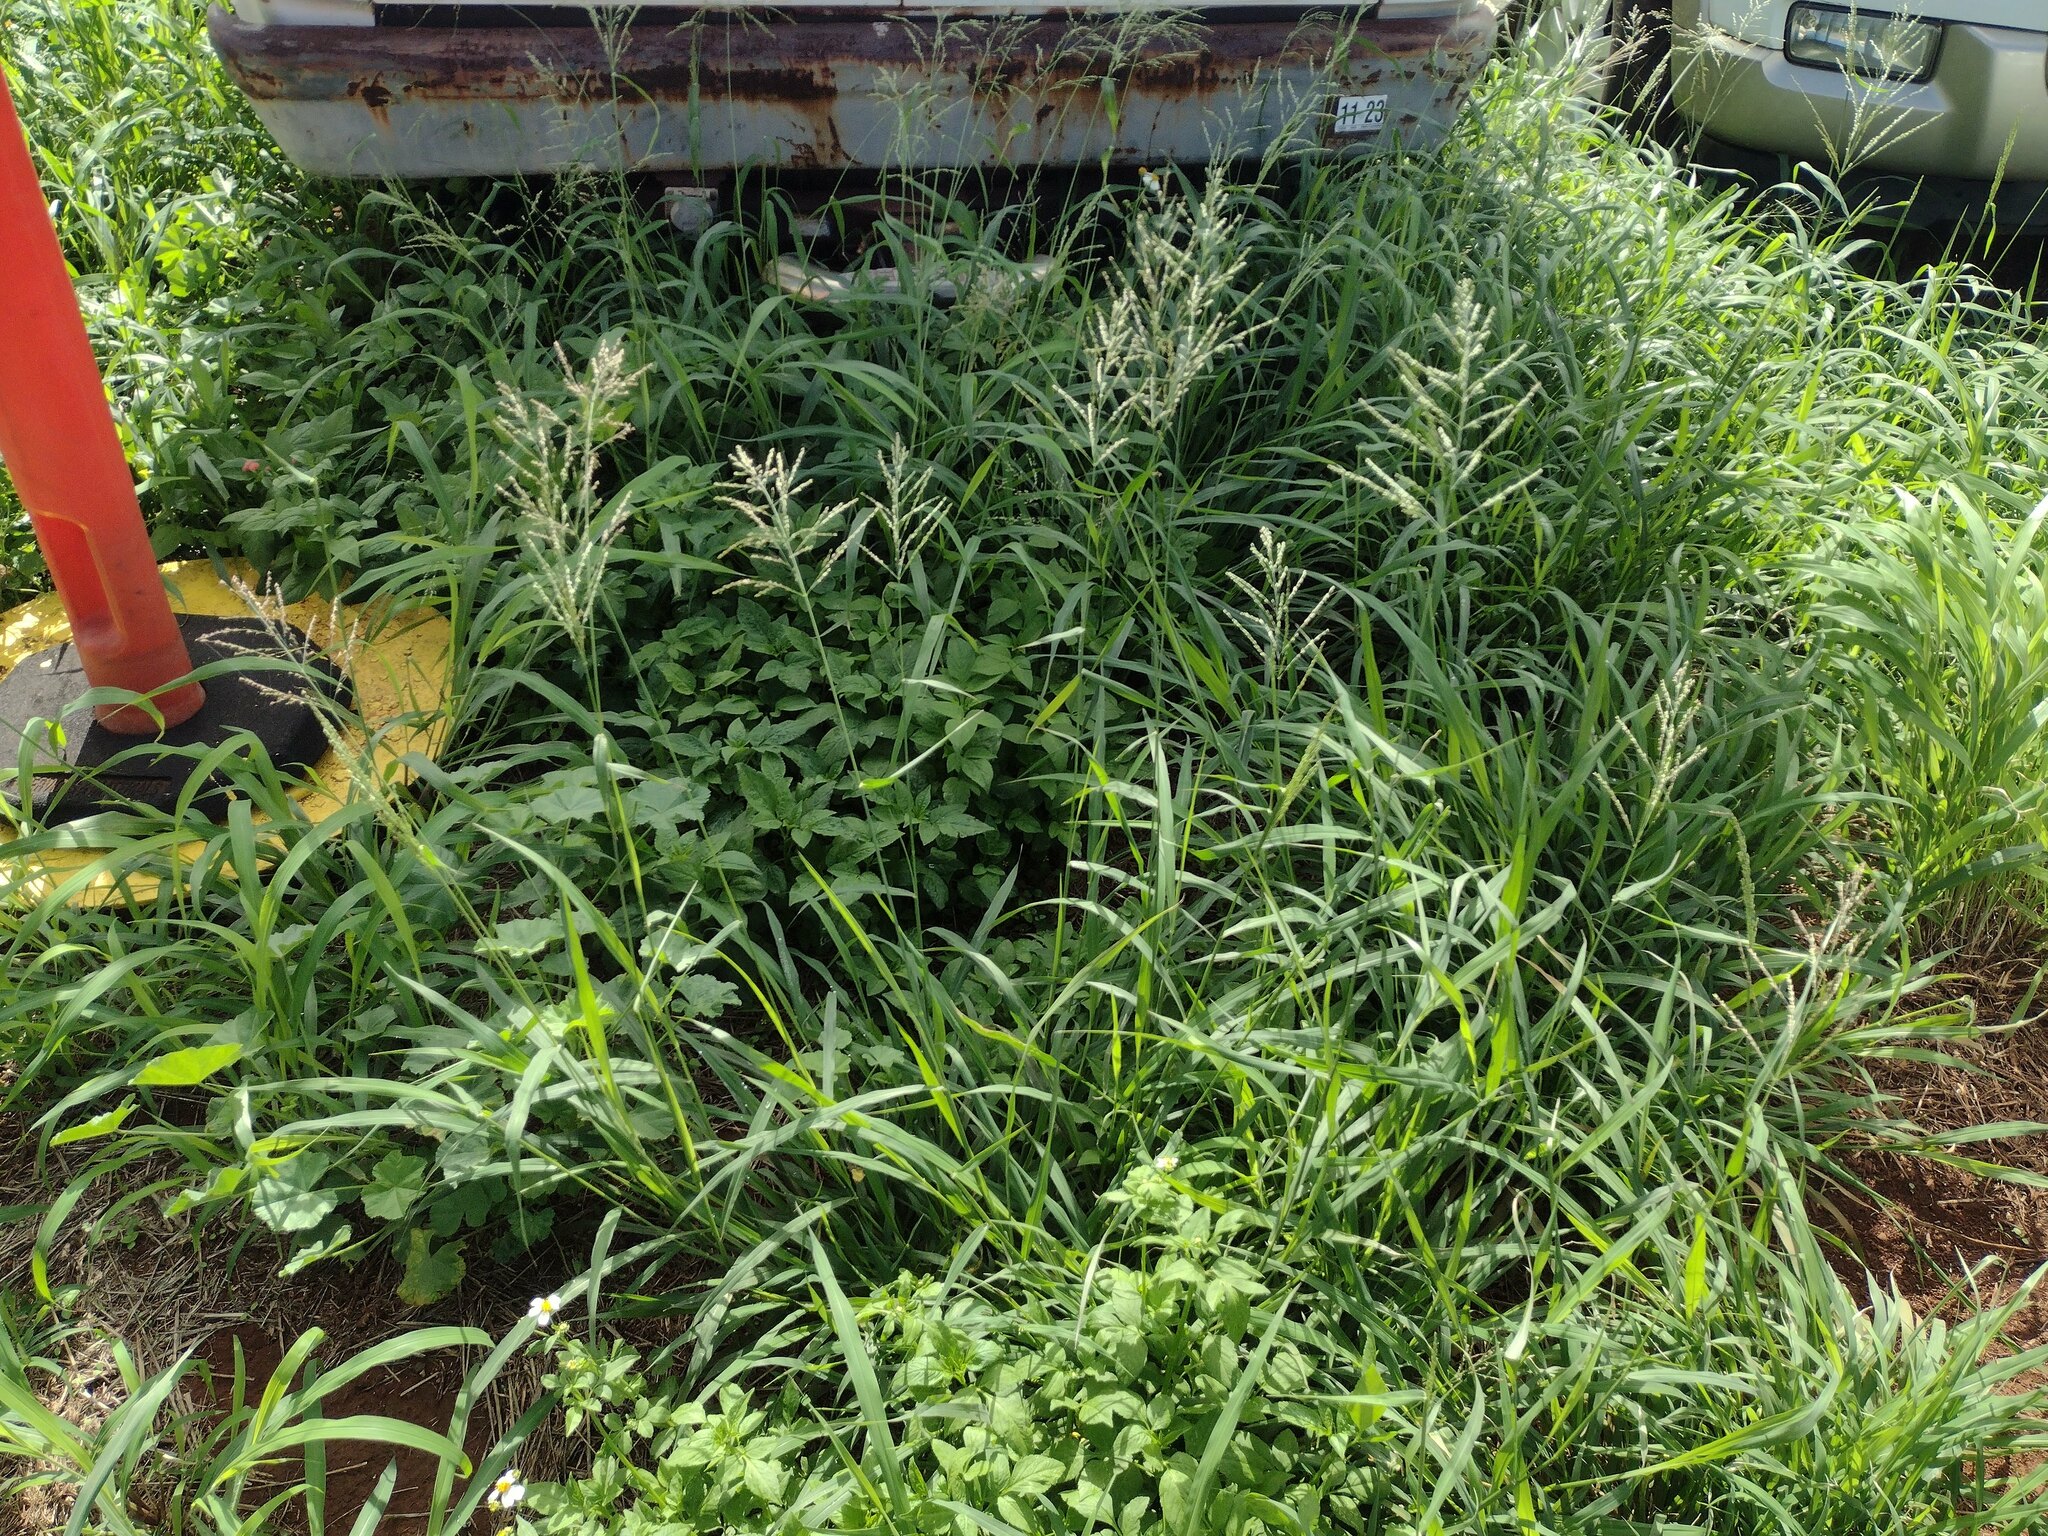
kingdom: Plantae
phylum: Tracheophyta
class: Liliopsida
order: Poales
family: Poaceae
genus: Megathyrsus
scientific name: Megathyrsus maximus
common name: Guineagrass
